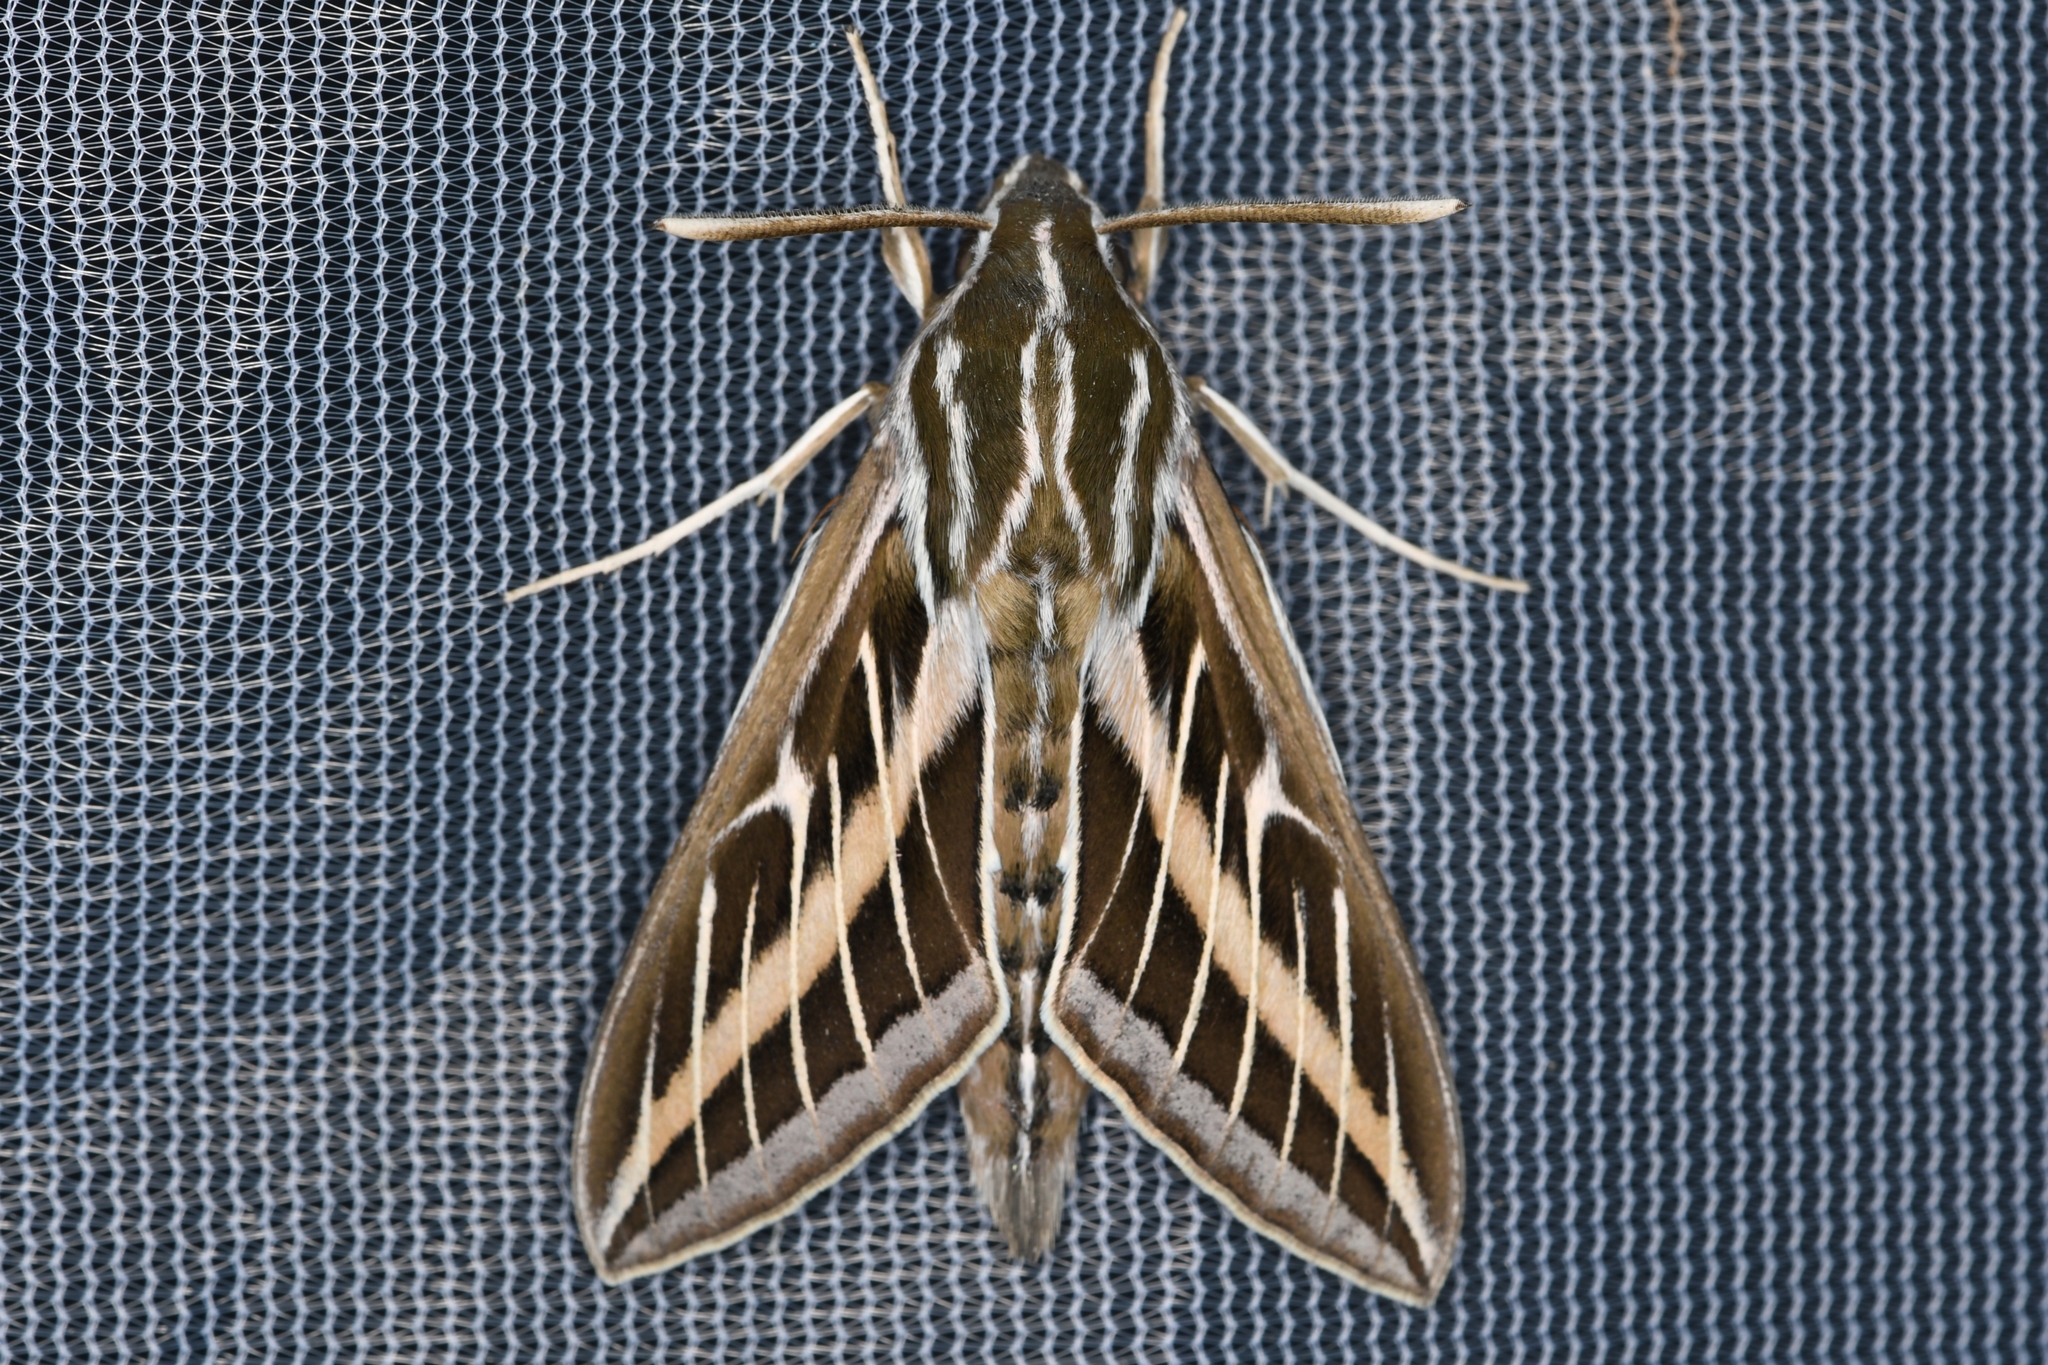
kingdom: Animalia
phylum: Arthropoda
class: Insecta
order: Lepidoptera
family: Sphingidae
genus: Hyles
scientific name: Hyles lineata
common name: White-lined sphinx
